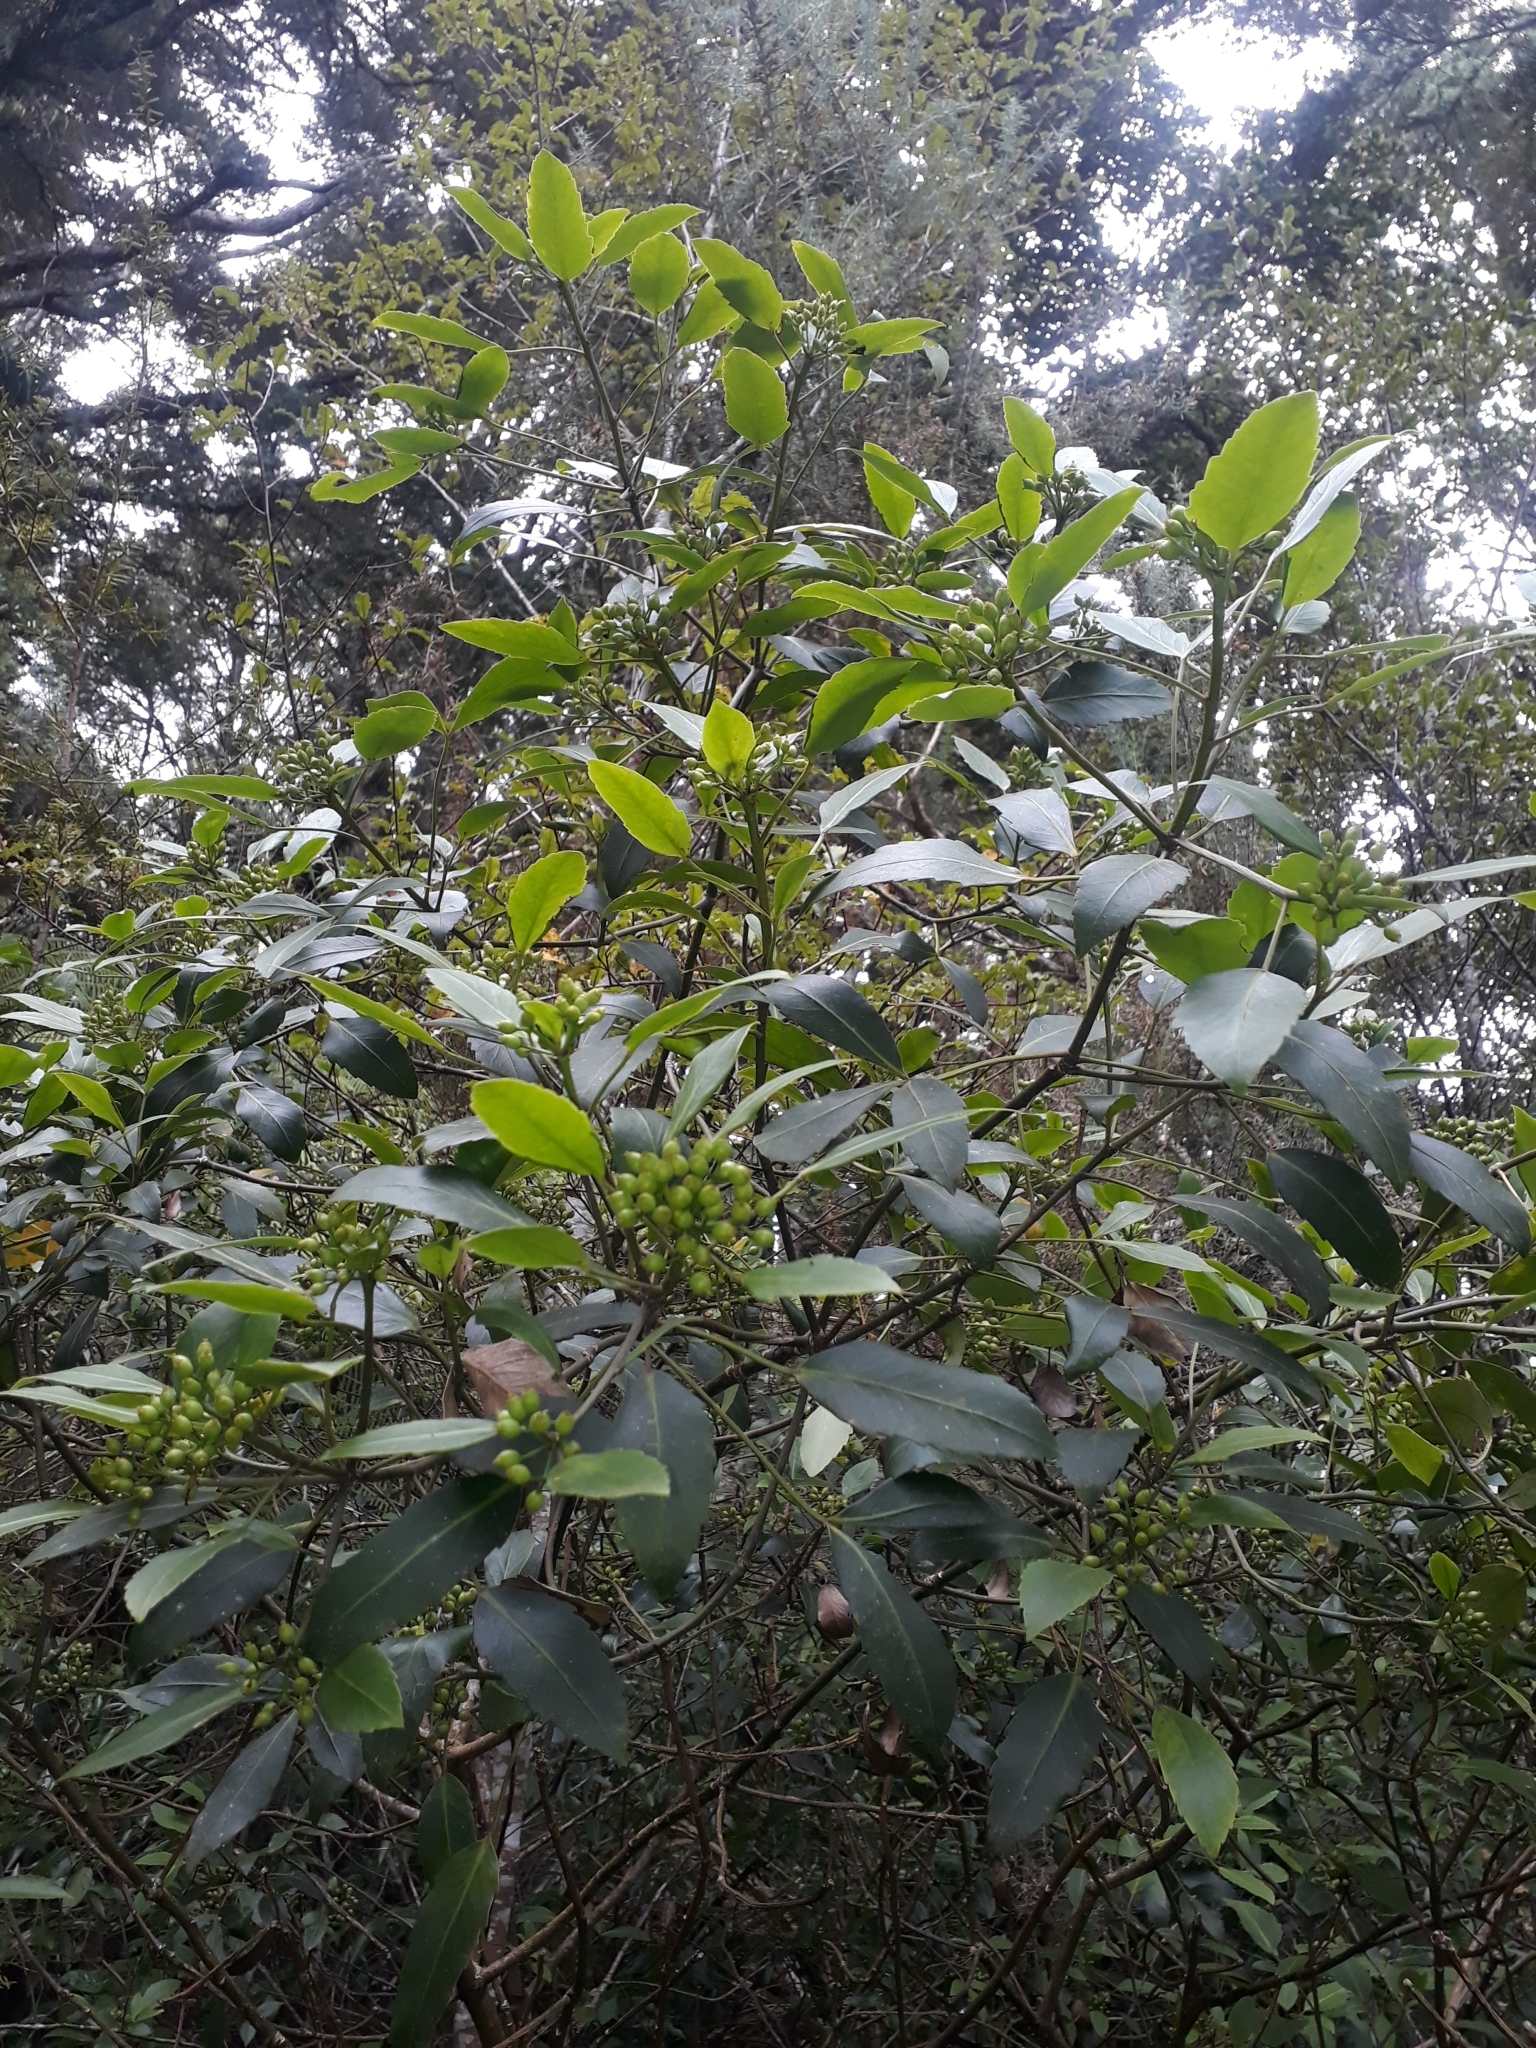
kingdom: Plantae
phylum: Tracheophyta
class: Magnoliopsida
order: Apiales
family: Araliaceae
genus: Pseudopanax
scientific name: Pseudopanax gilliesii
